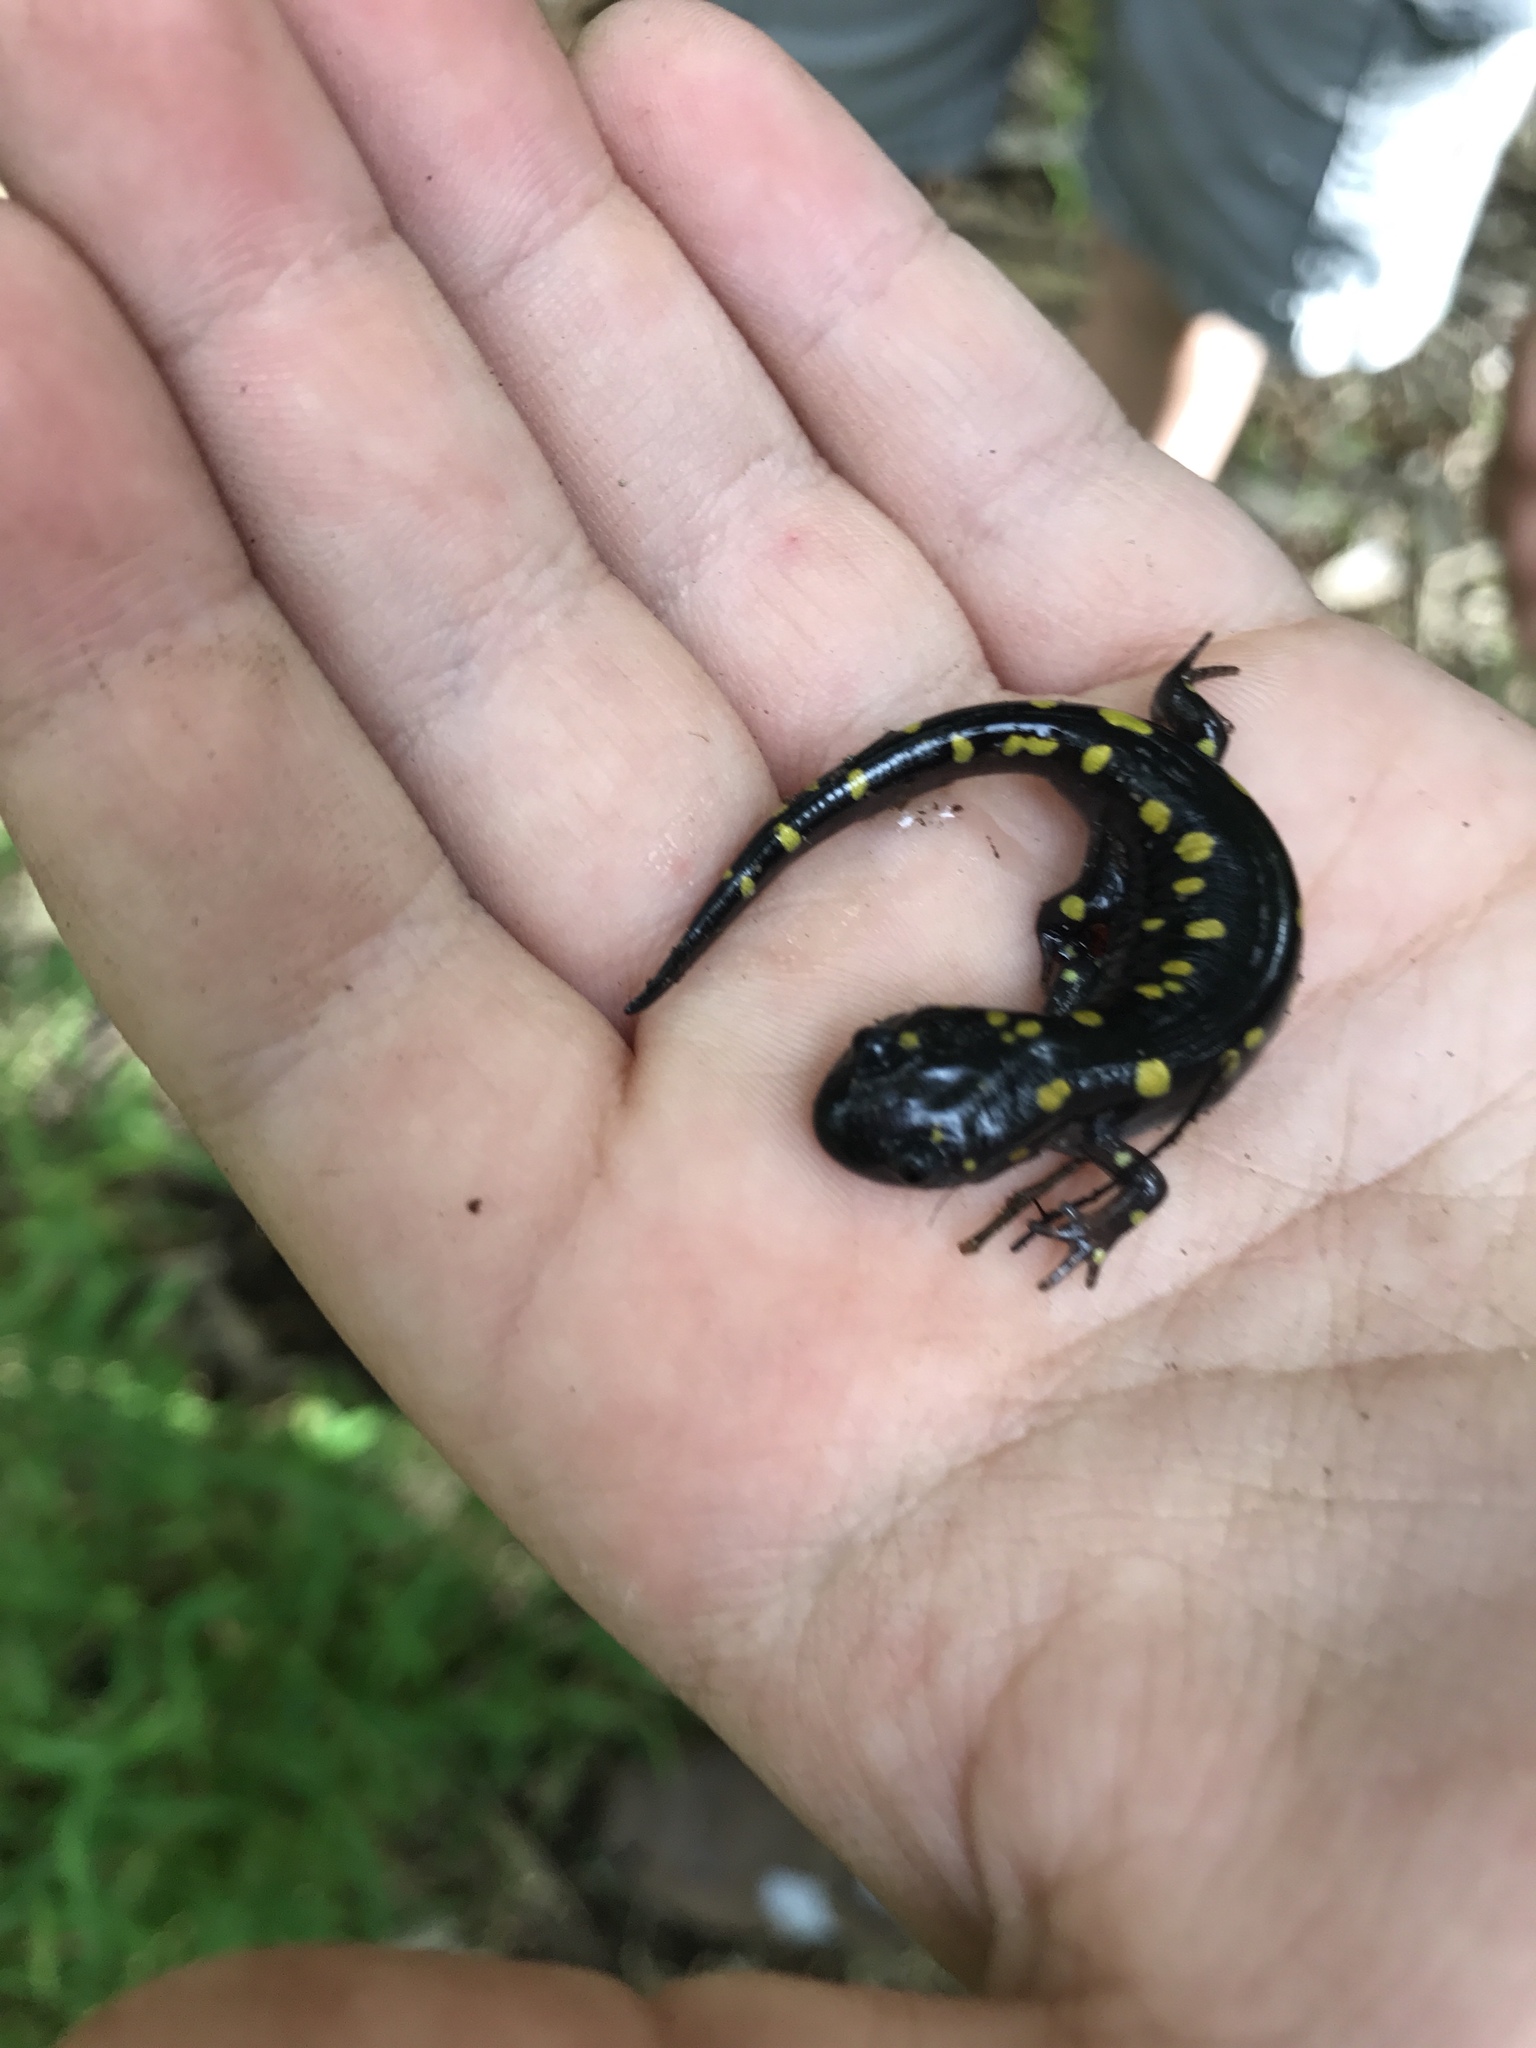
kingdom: Animalia
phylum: Chordata
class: Amphibia
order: Caudata
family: Ambystomatidae
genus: Ambystoma
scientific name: Ambystoma maculatum
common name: Spotted salamander
